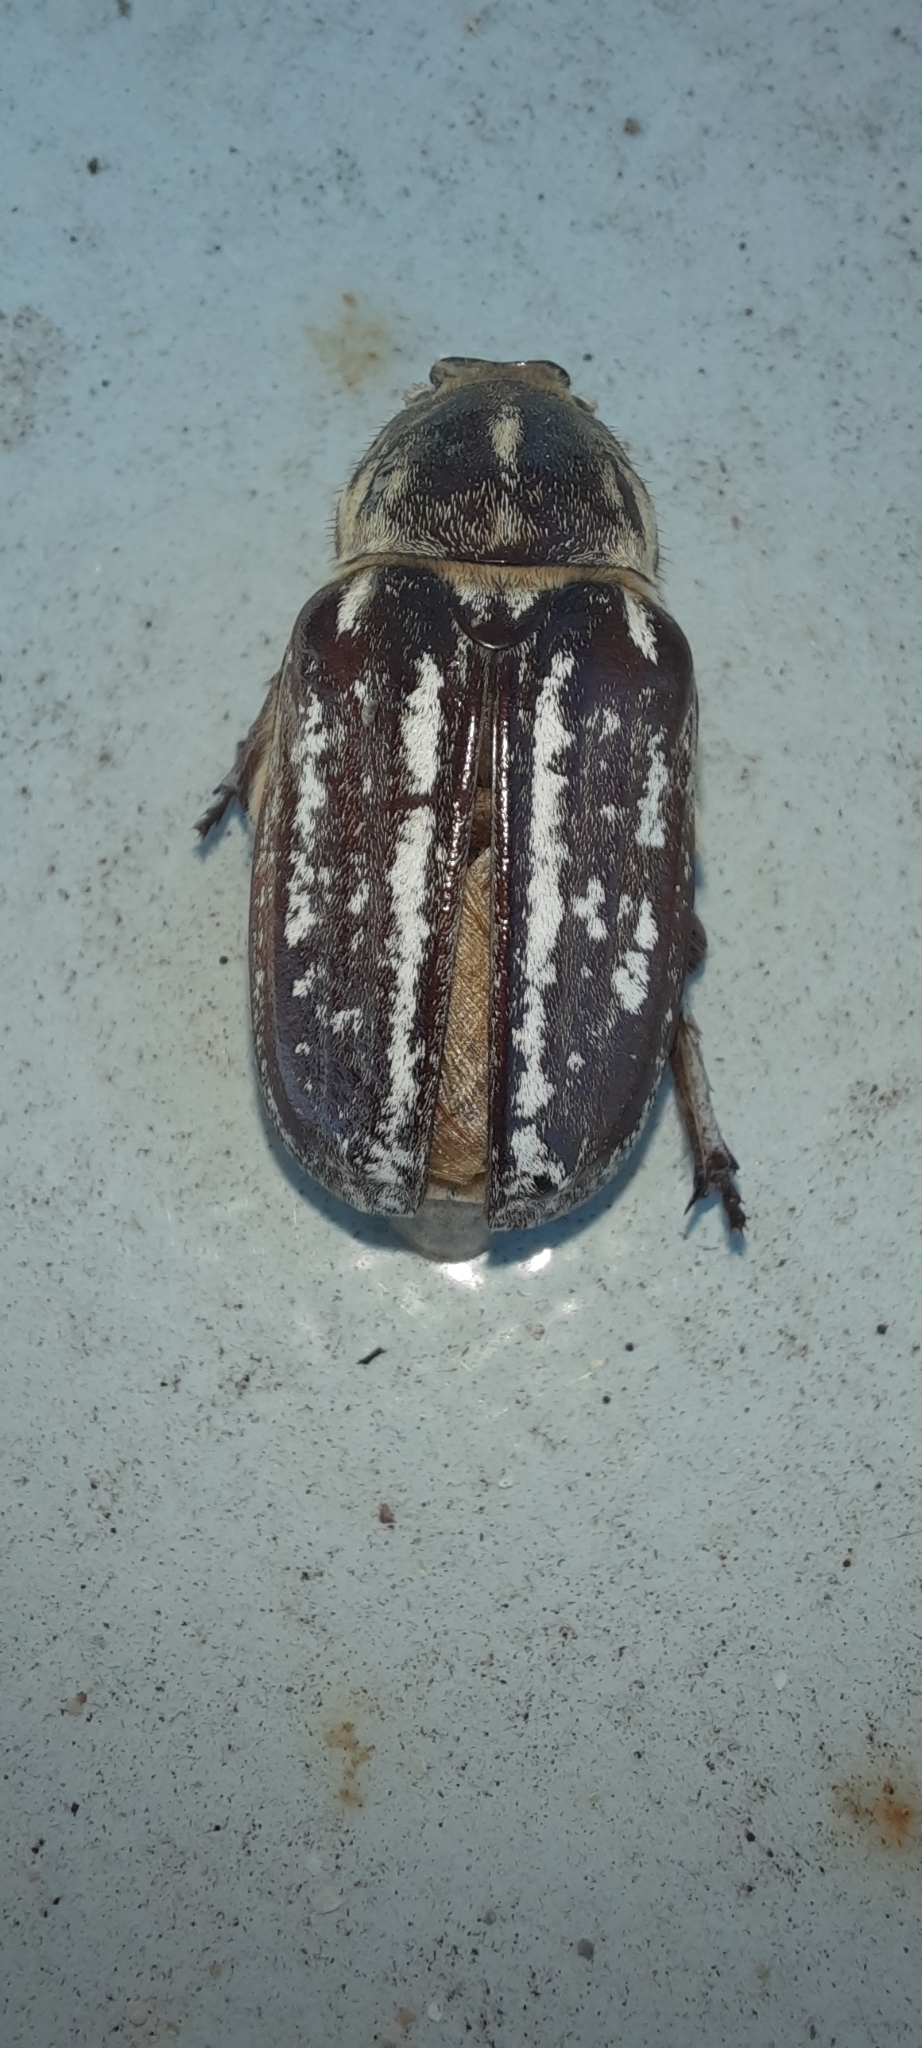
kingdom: Animalia
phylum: Arthropoda
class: Insecta
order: Coleoptera
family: Scarabaeidae
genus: Anoxia
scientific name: Anoxia orientalis
